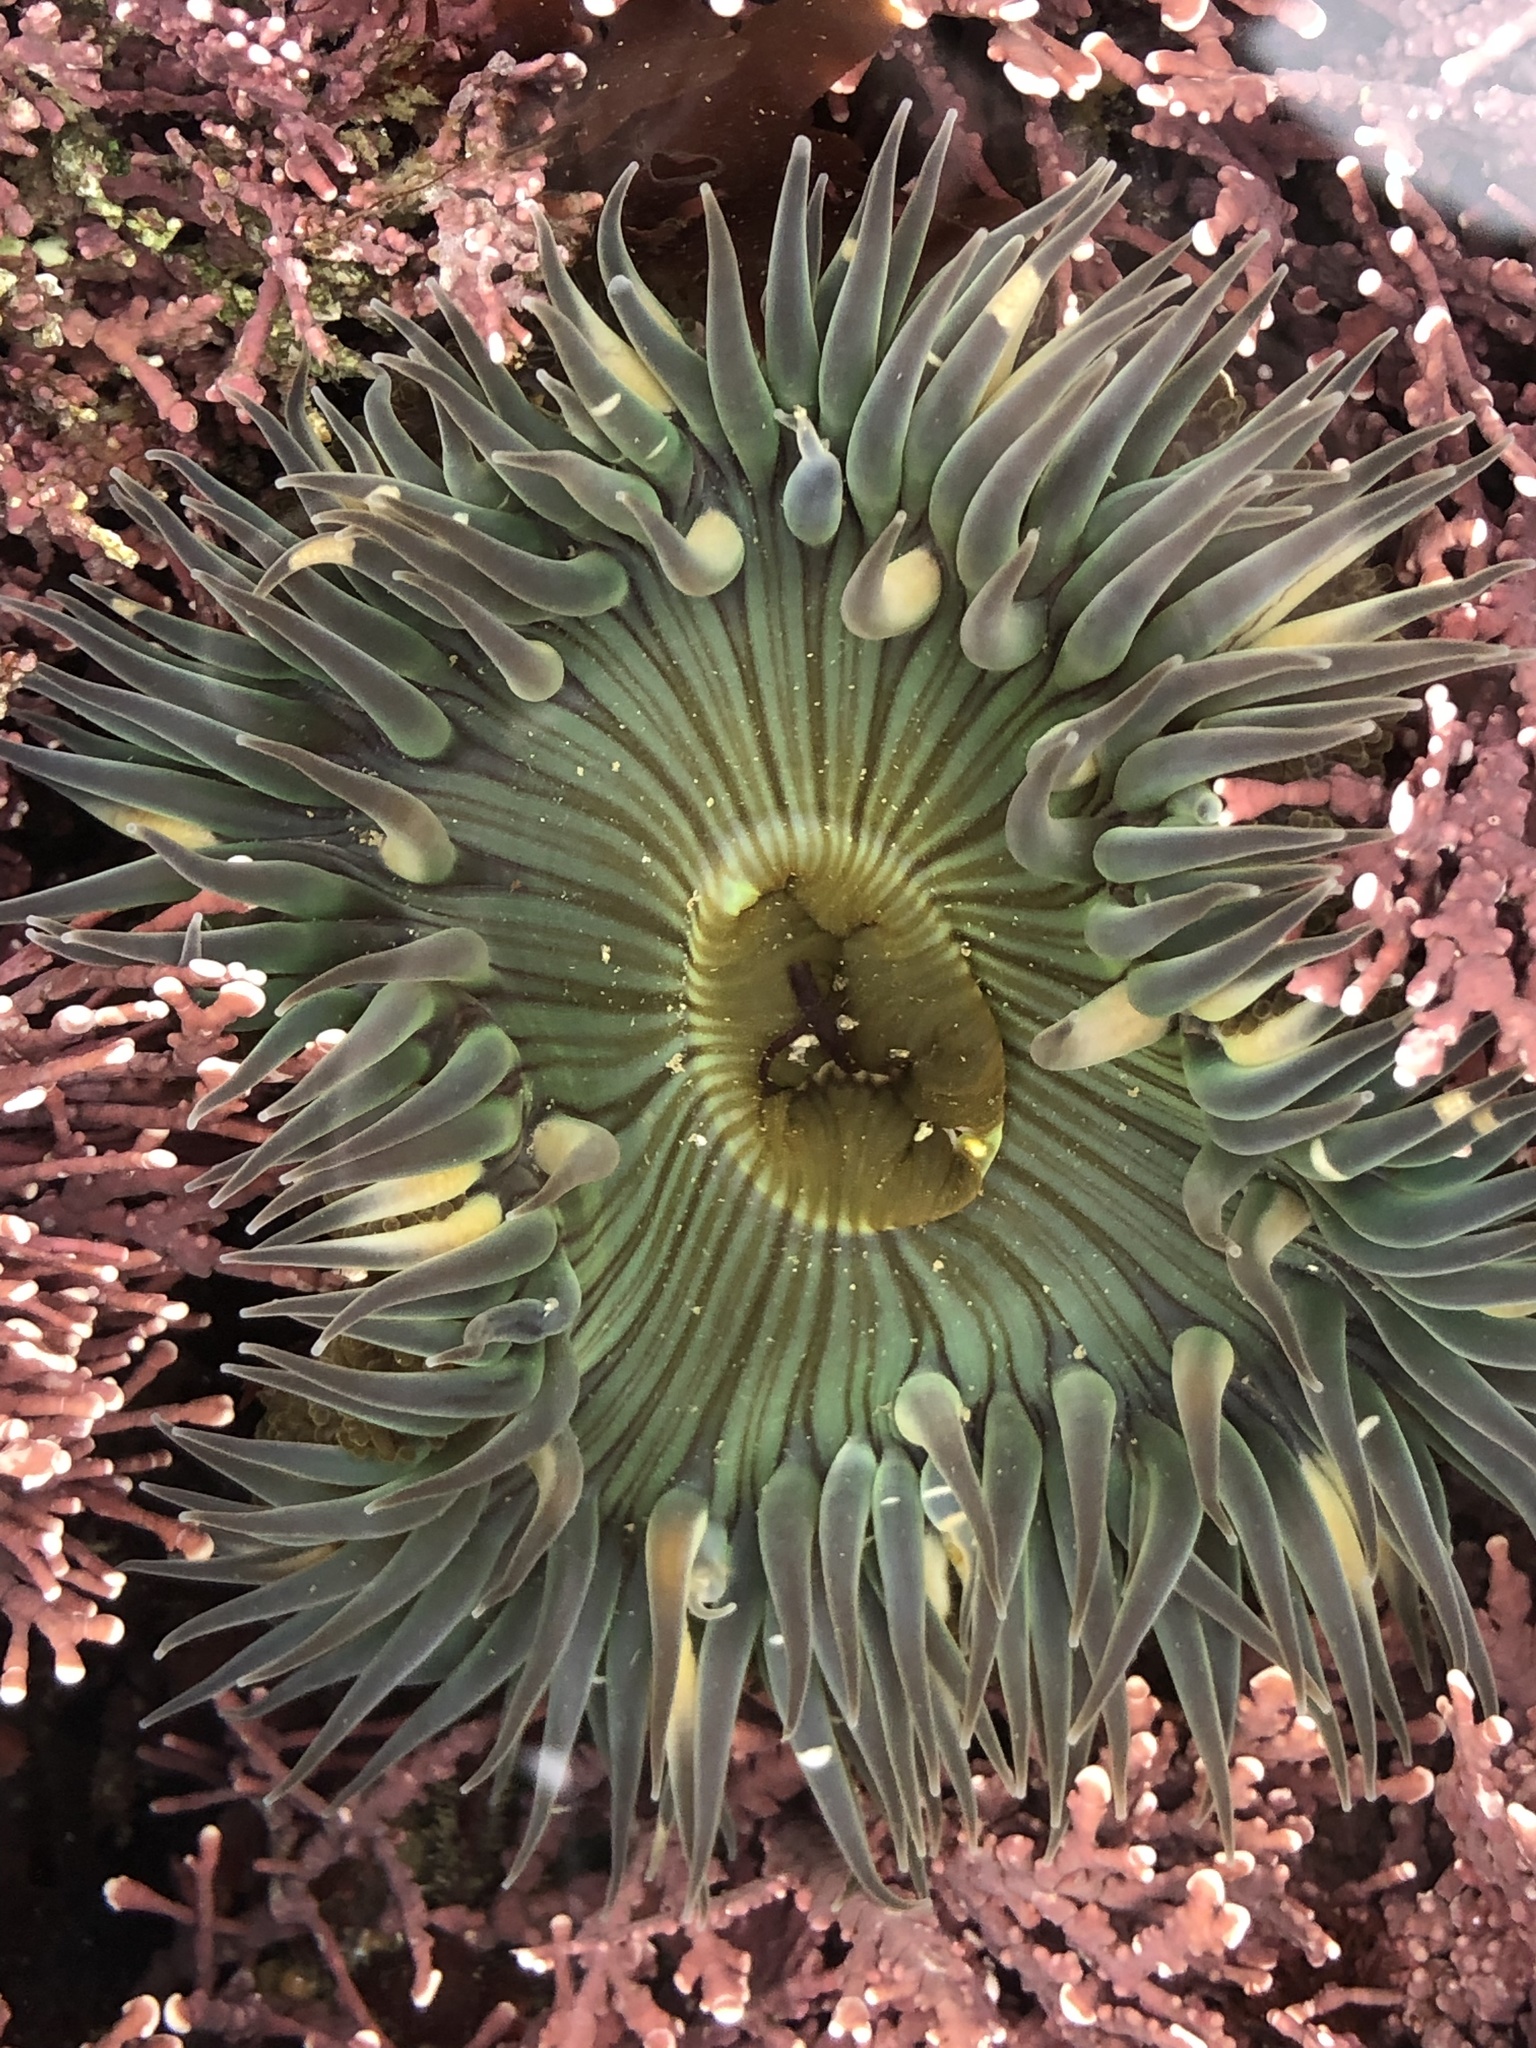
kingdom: Animalia
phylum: Cnidaria
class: Anthozoa
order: Actiniaria
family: Actiniidae
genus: Anthopleura
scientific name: Anthopleura sola
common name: Sun anemone
